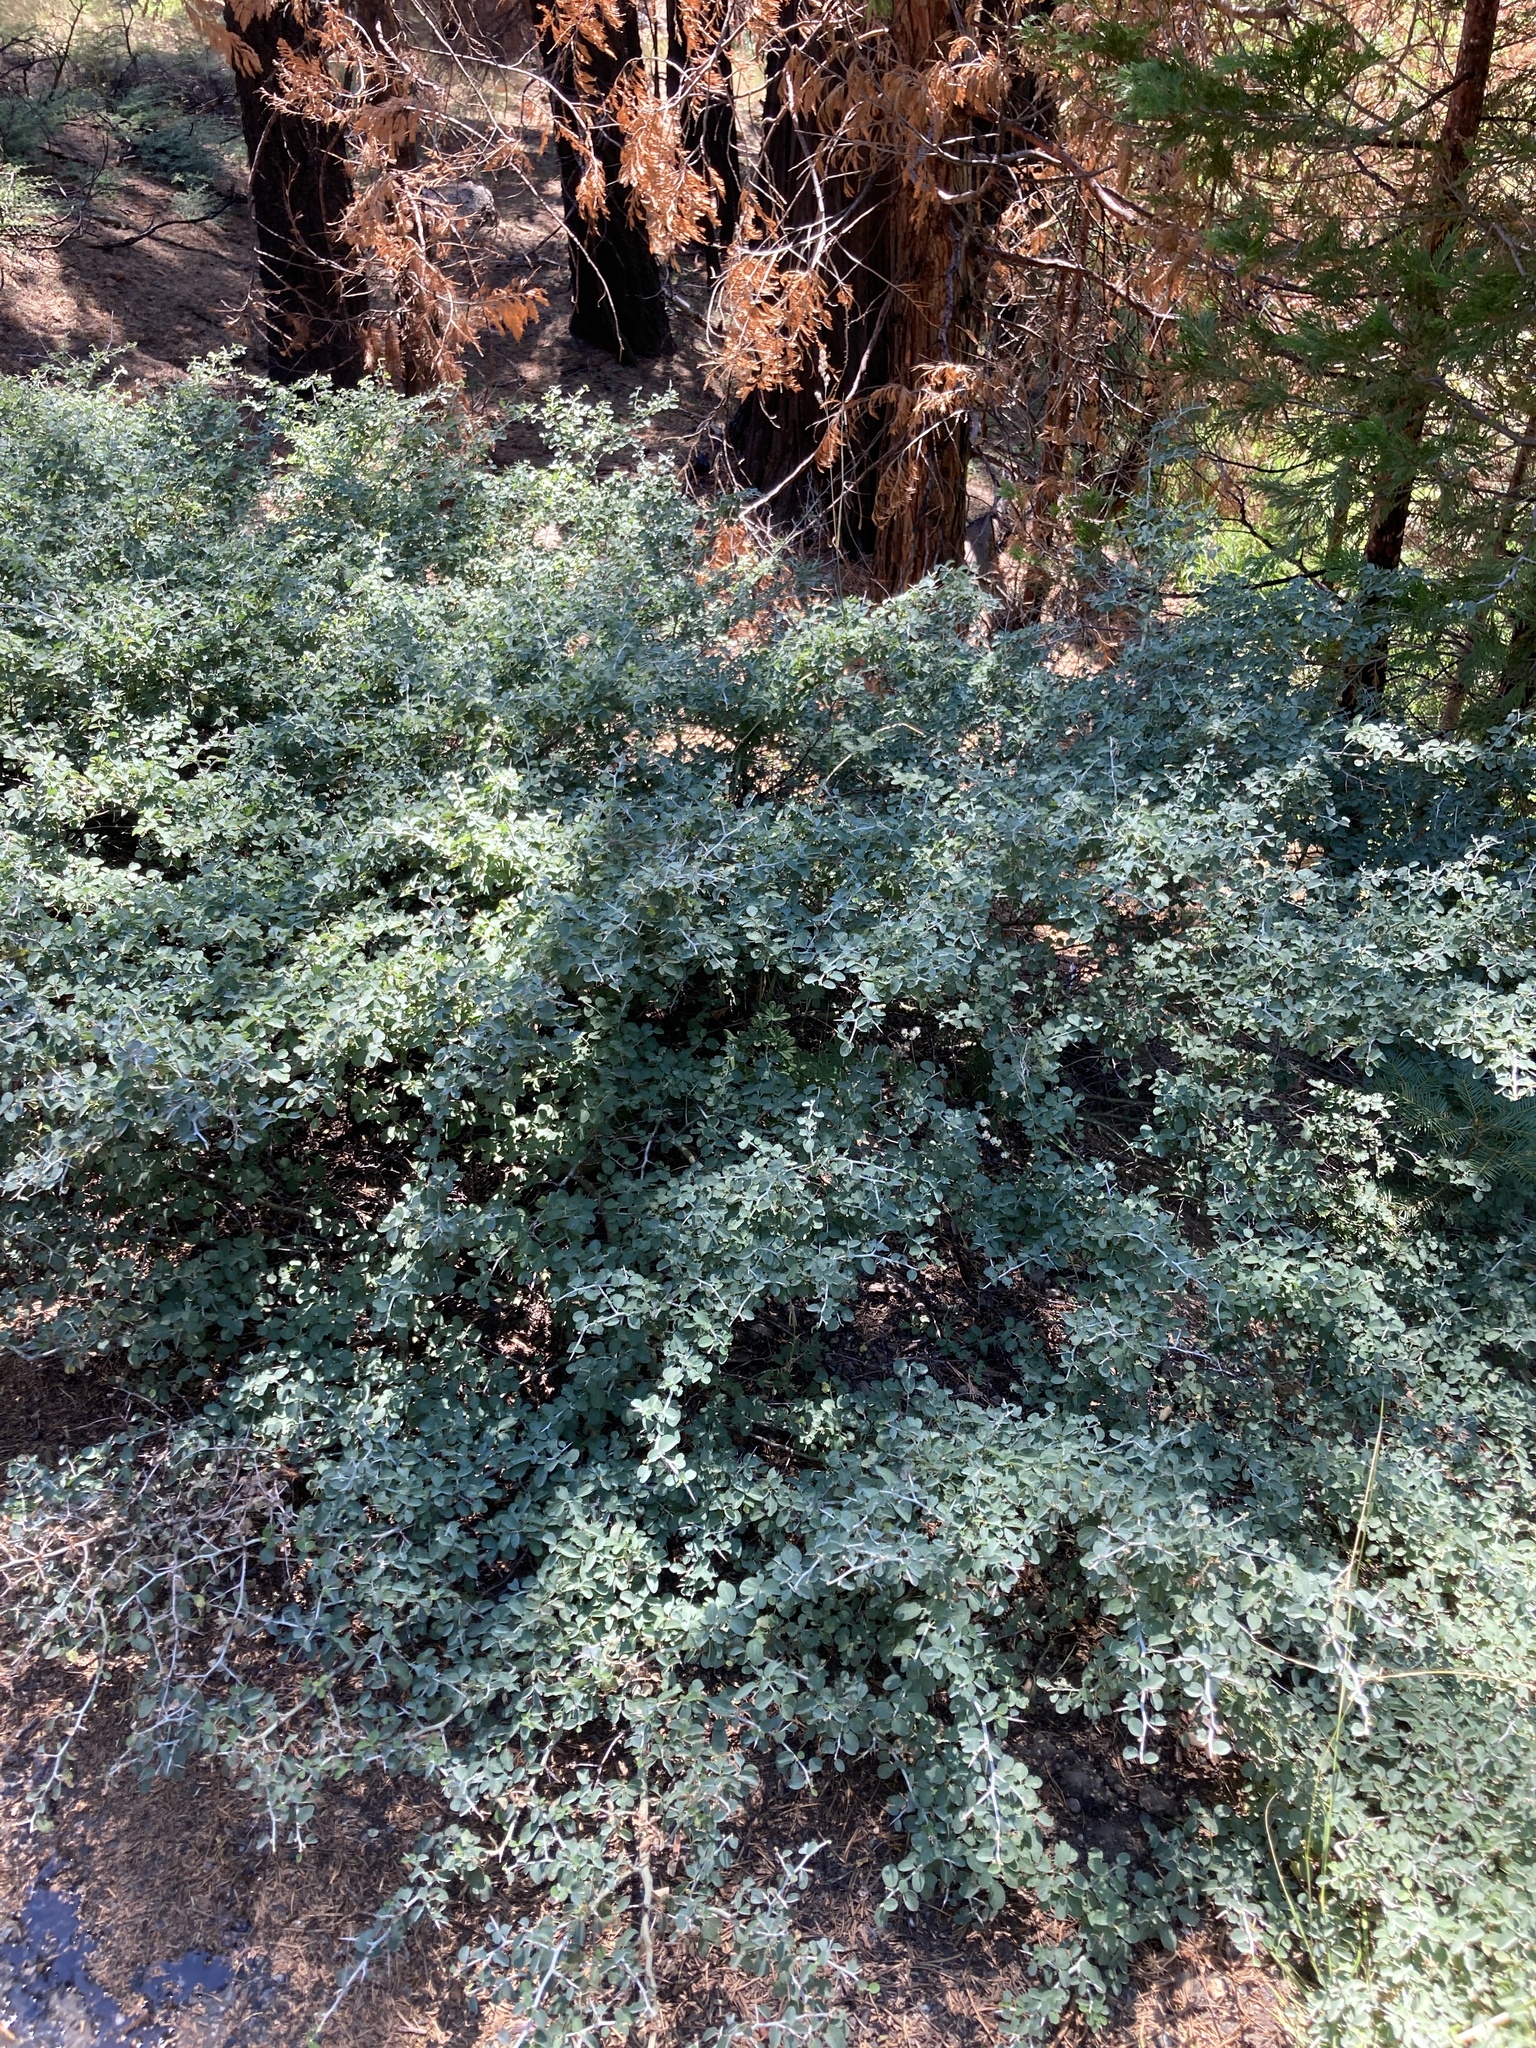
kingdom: Plantae
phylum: Tracheophyta
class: Magnoliopsida
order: Rosales
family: Rhamnaceae
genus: Ceanothus
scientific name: Ceanothus cordulatus
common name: Mountain whitethorn
